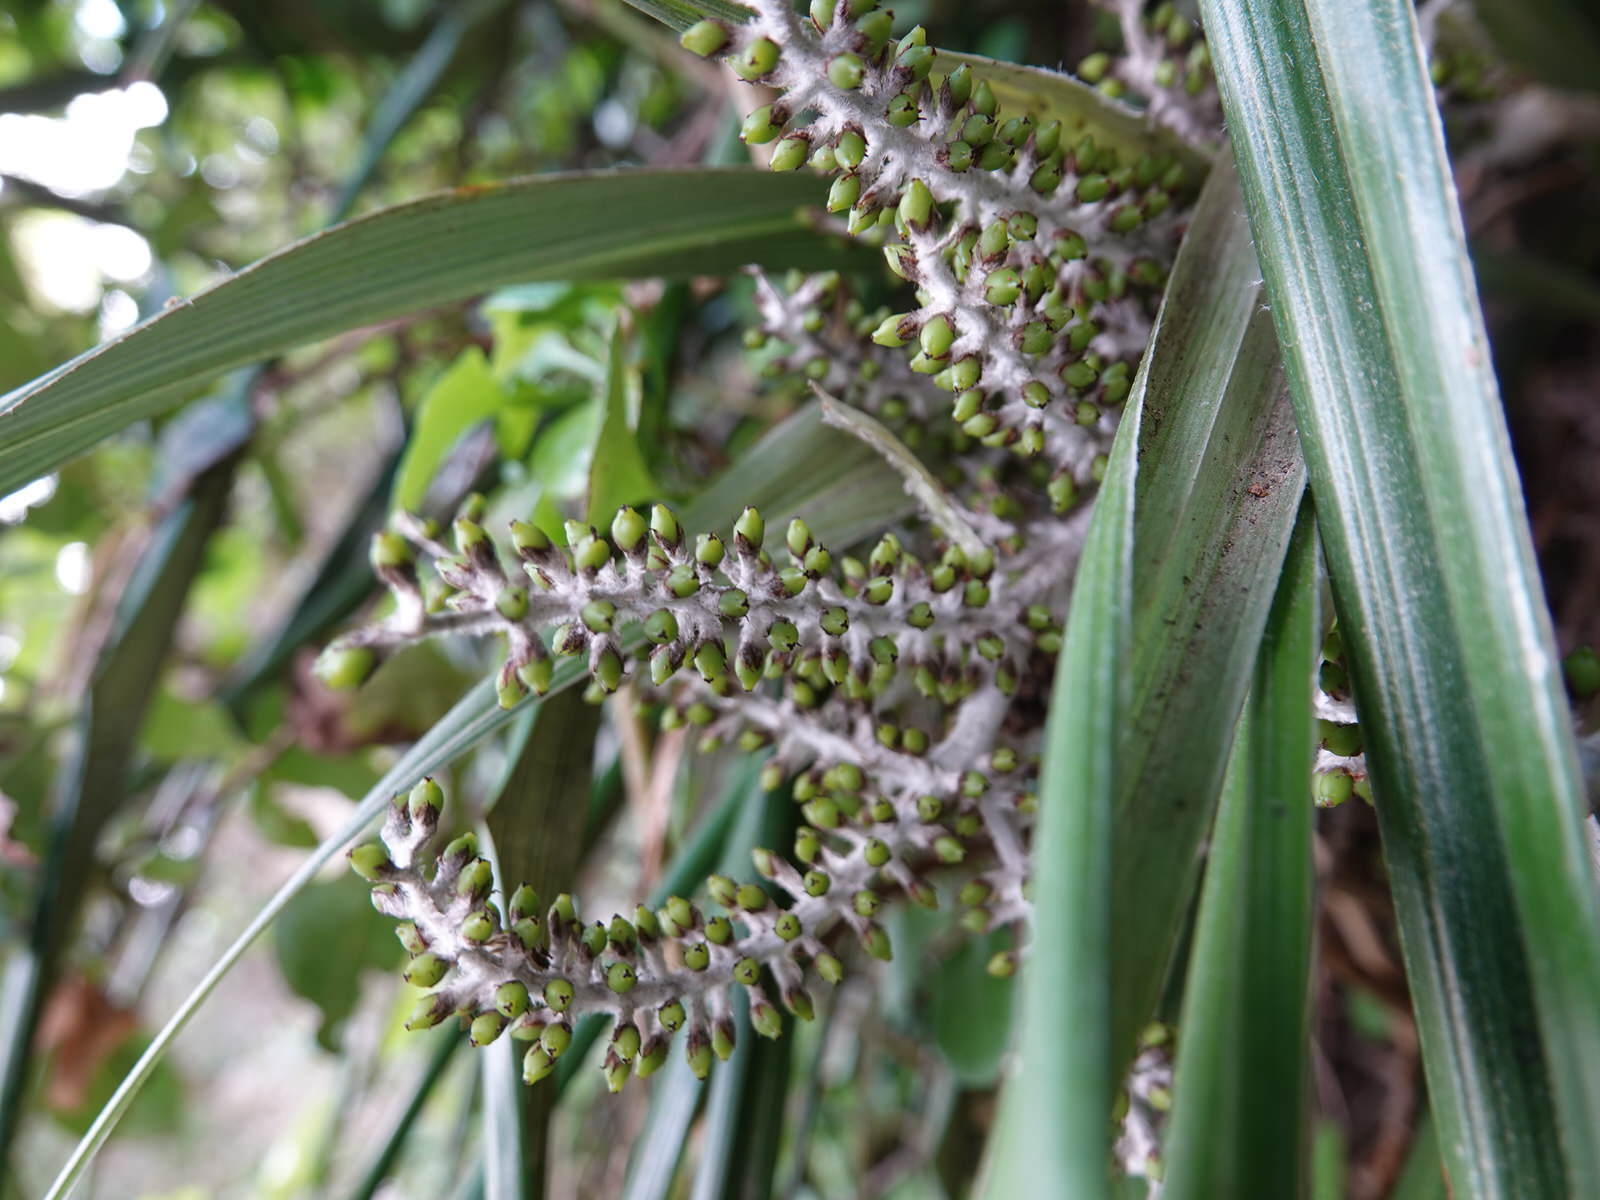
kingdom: Plantae
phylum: Tracheophyta
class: Liliopsida
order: Asparagales
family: Asteliaceae
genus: Astelia
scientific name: Astelia banksii
